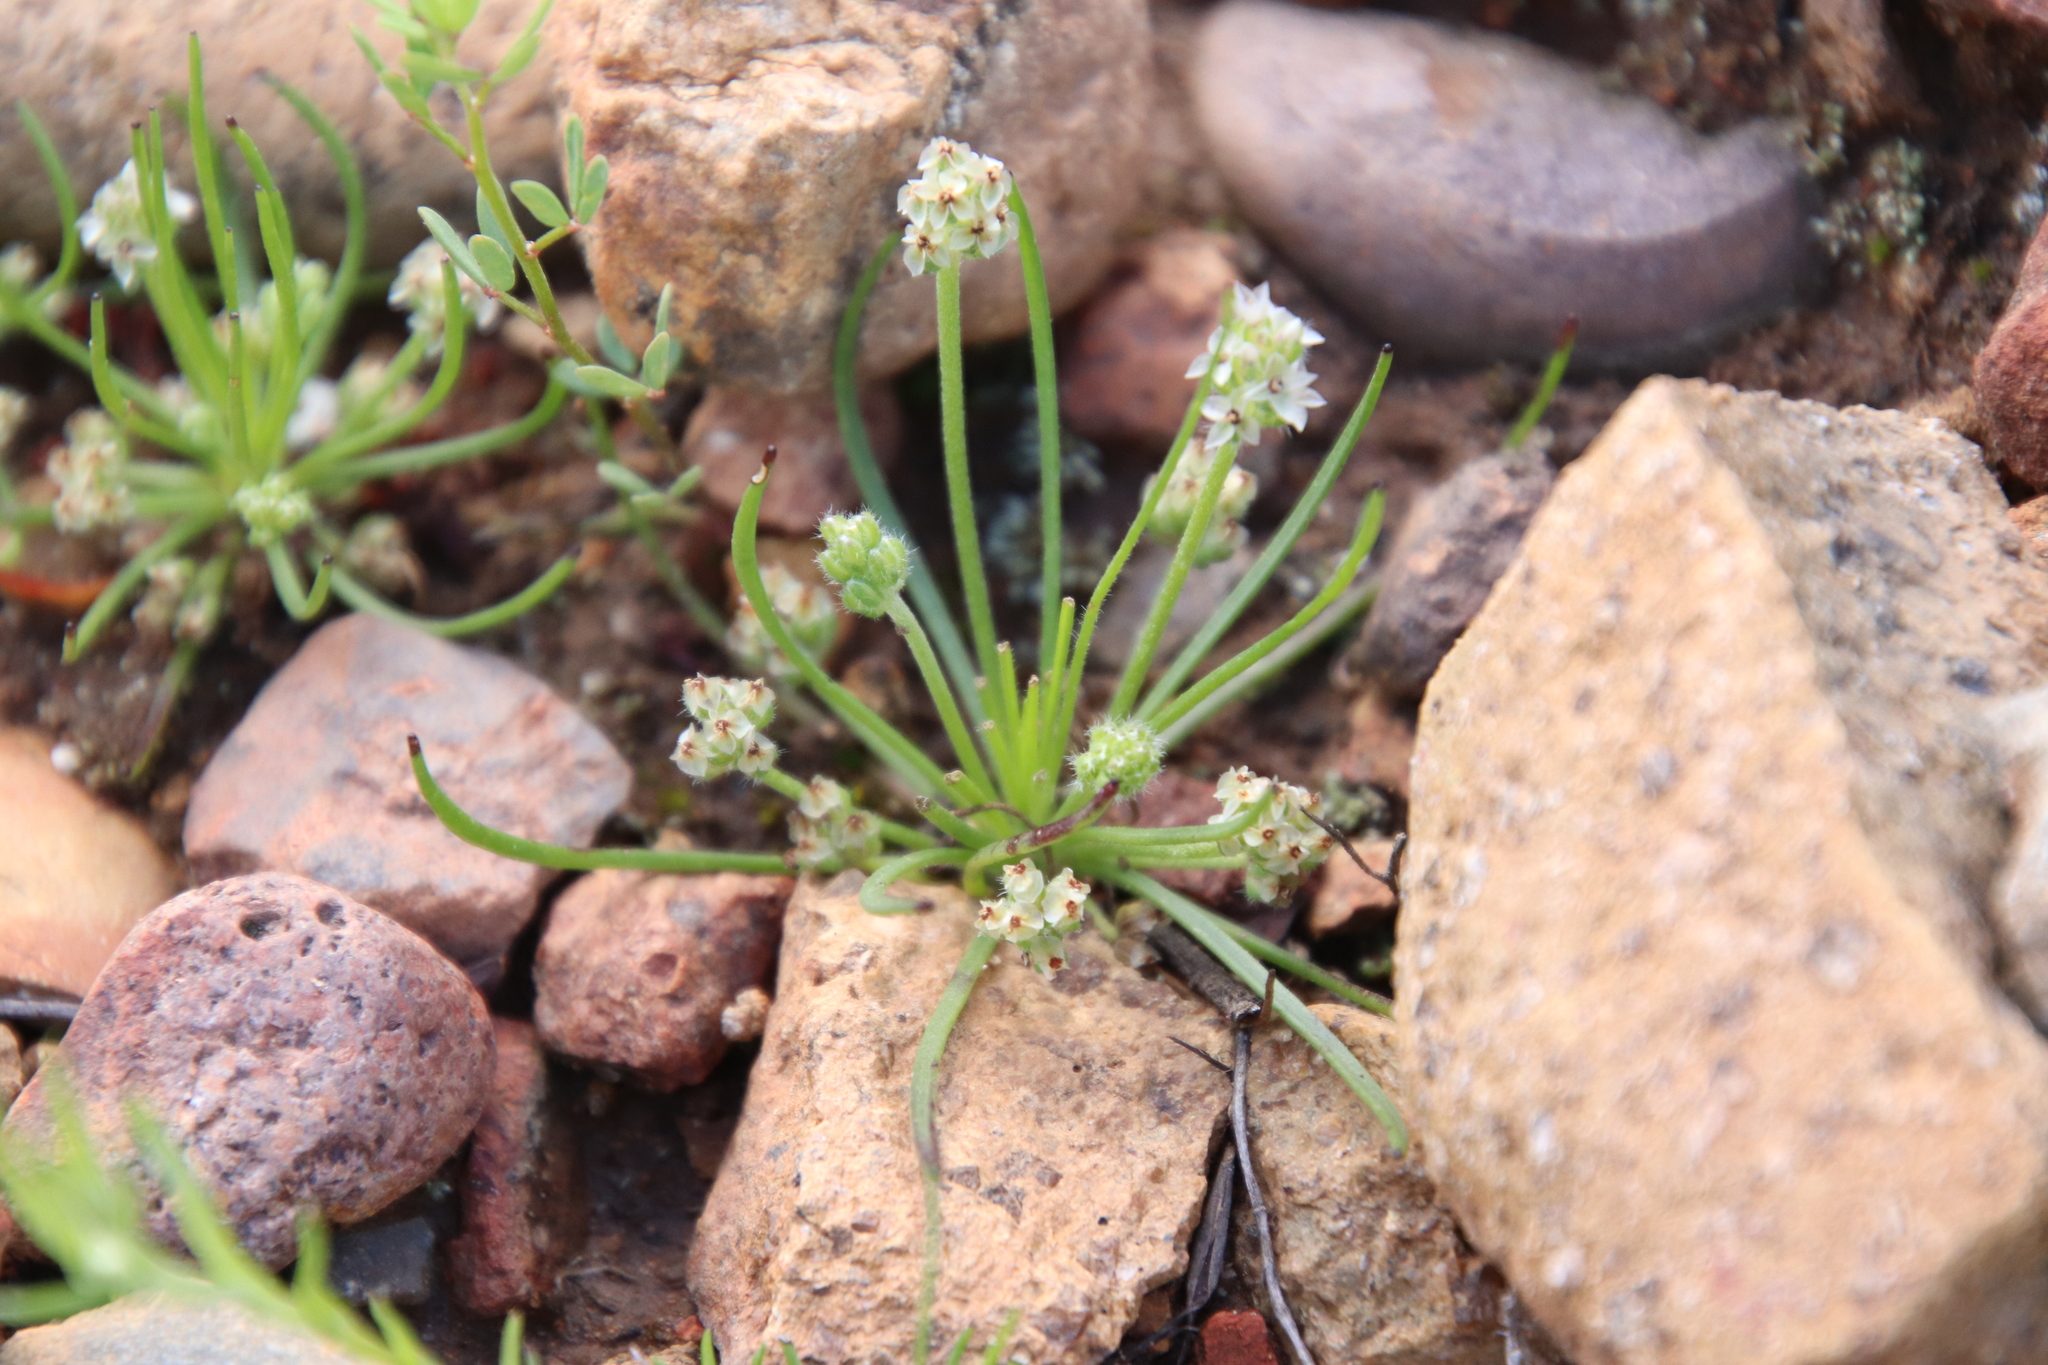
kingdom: Plantae
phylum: Tracheophyta
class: Magnoliopsida
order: Lamiales
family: Plantaginaceae
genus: Plantago
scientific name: Plantago erecta
